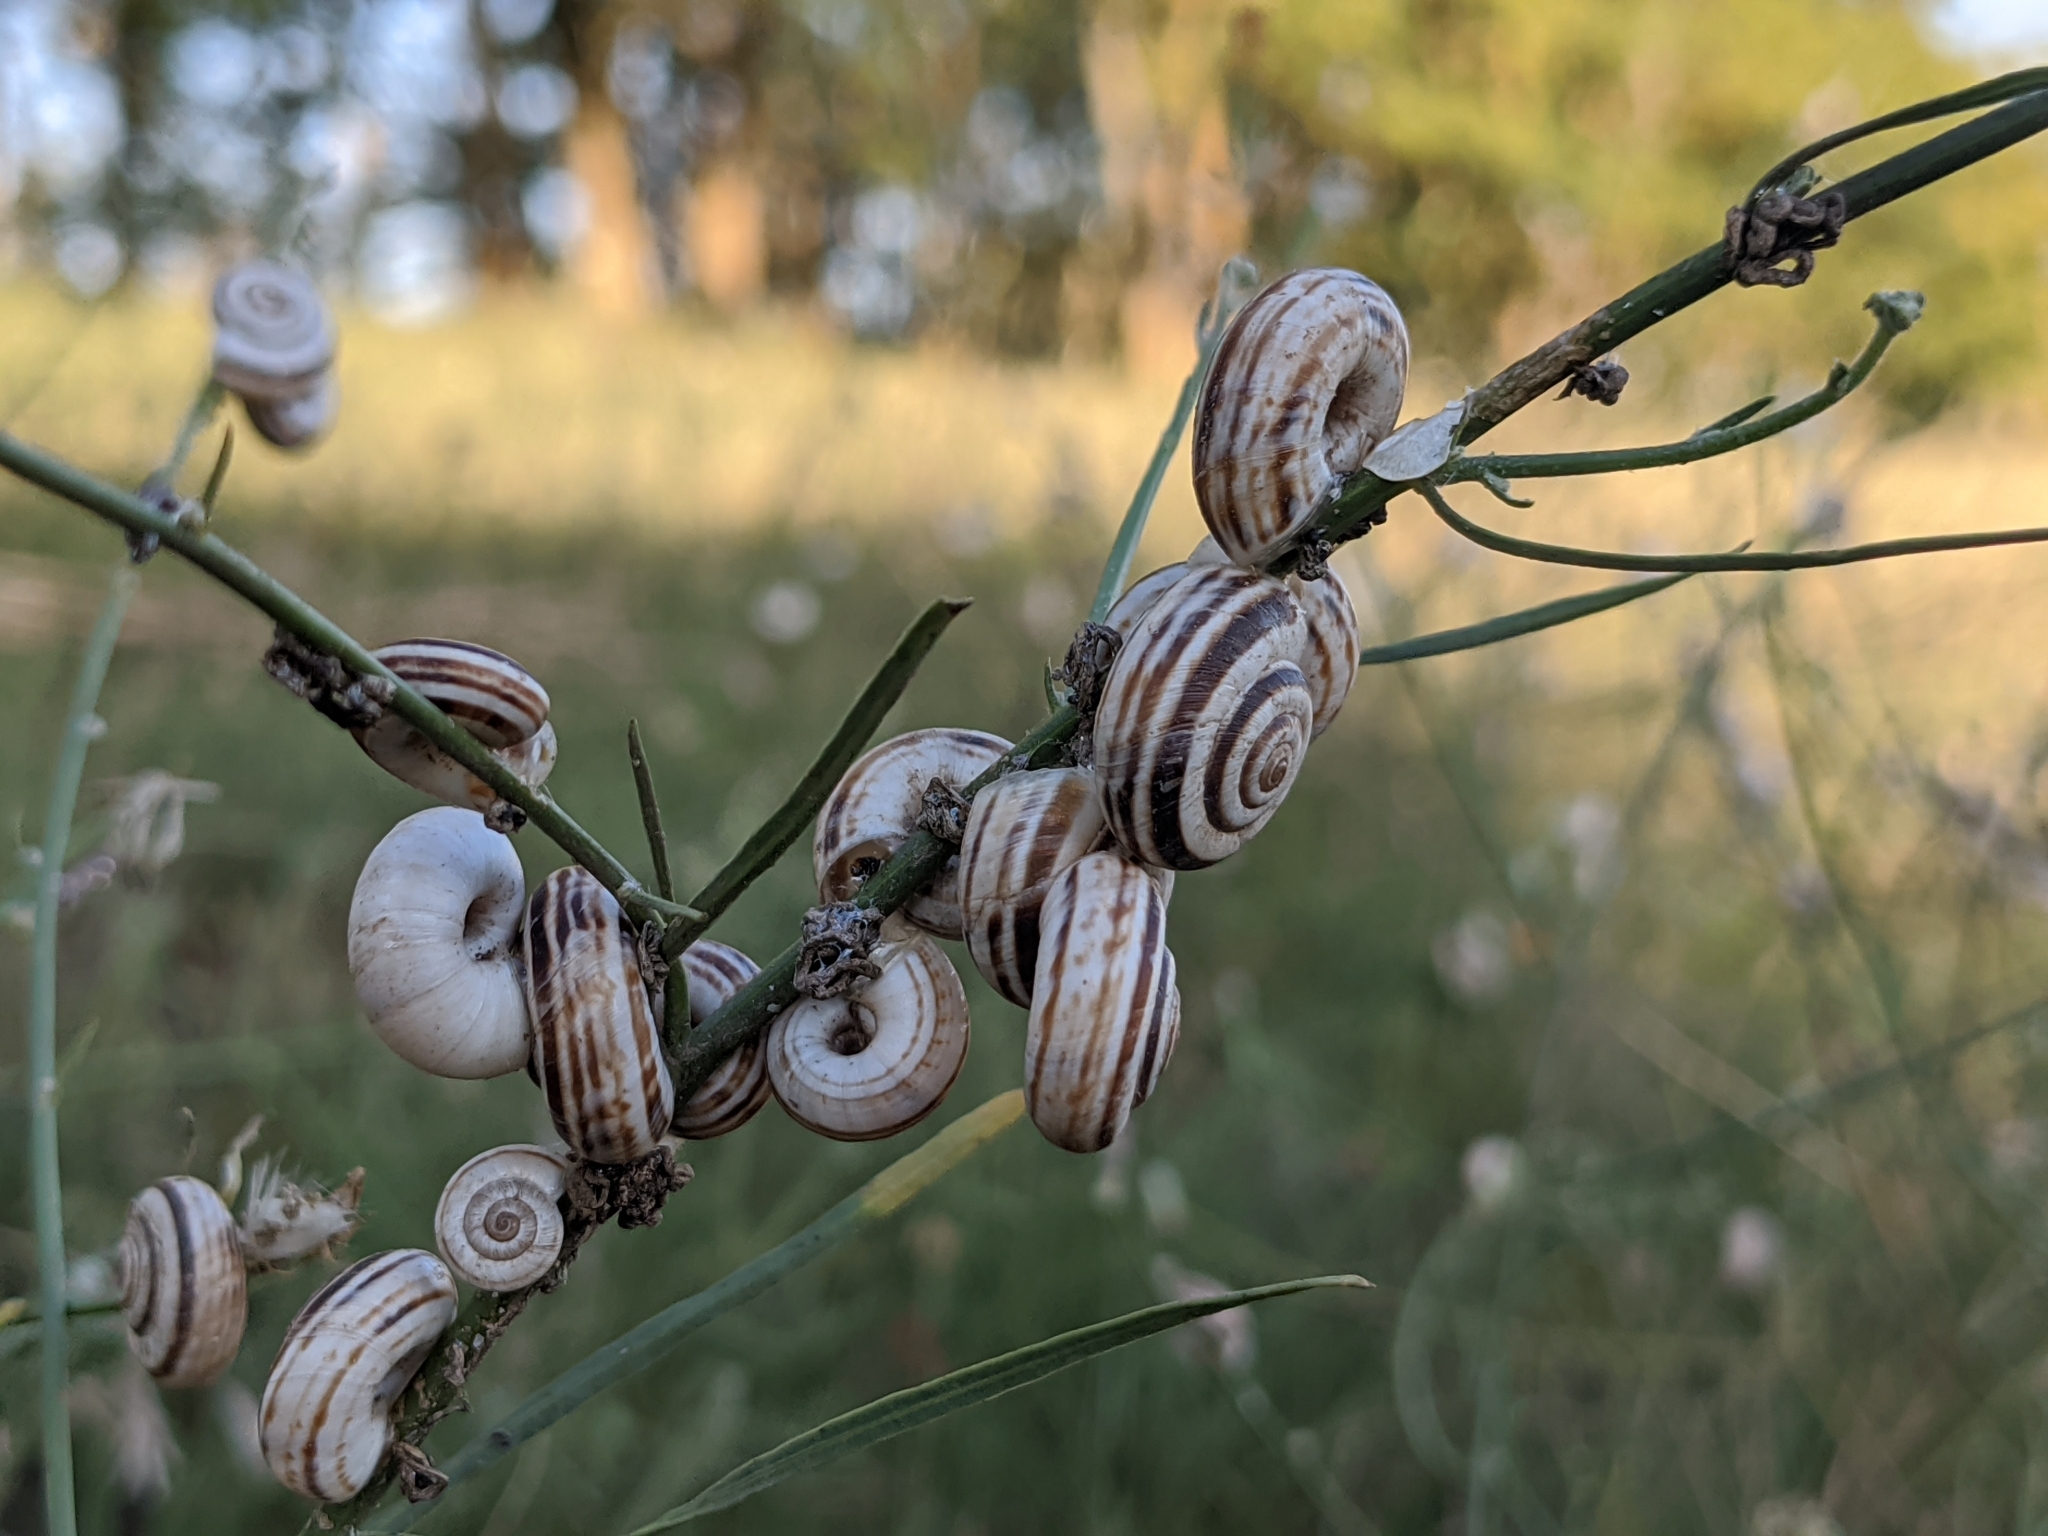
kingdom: Animalia
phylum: Mollusca
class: Gastropoda
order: Stylommatophora
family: Geomitridae
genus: Xerolenta
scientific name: Xerolenta obvia
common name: White heath snail
